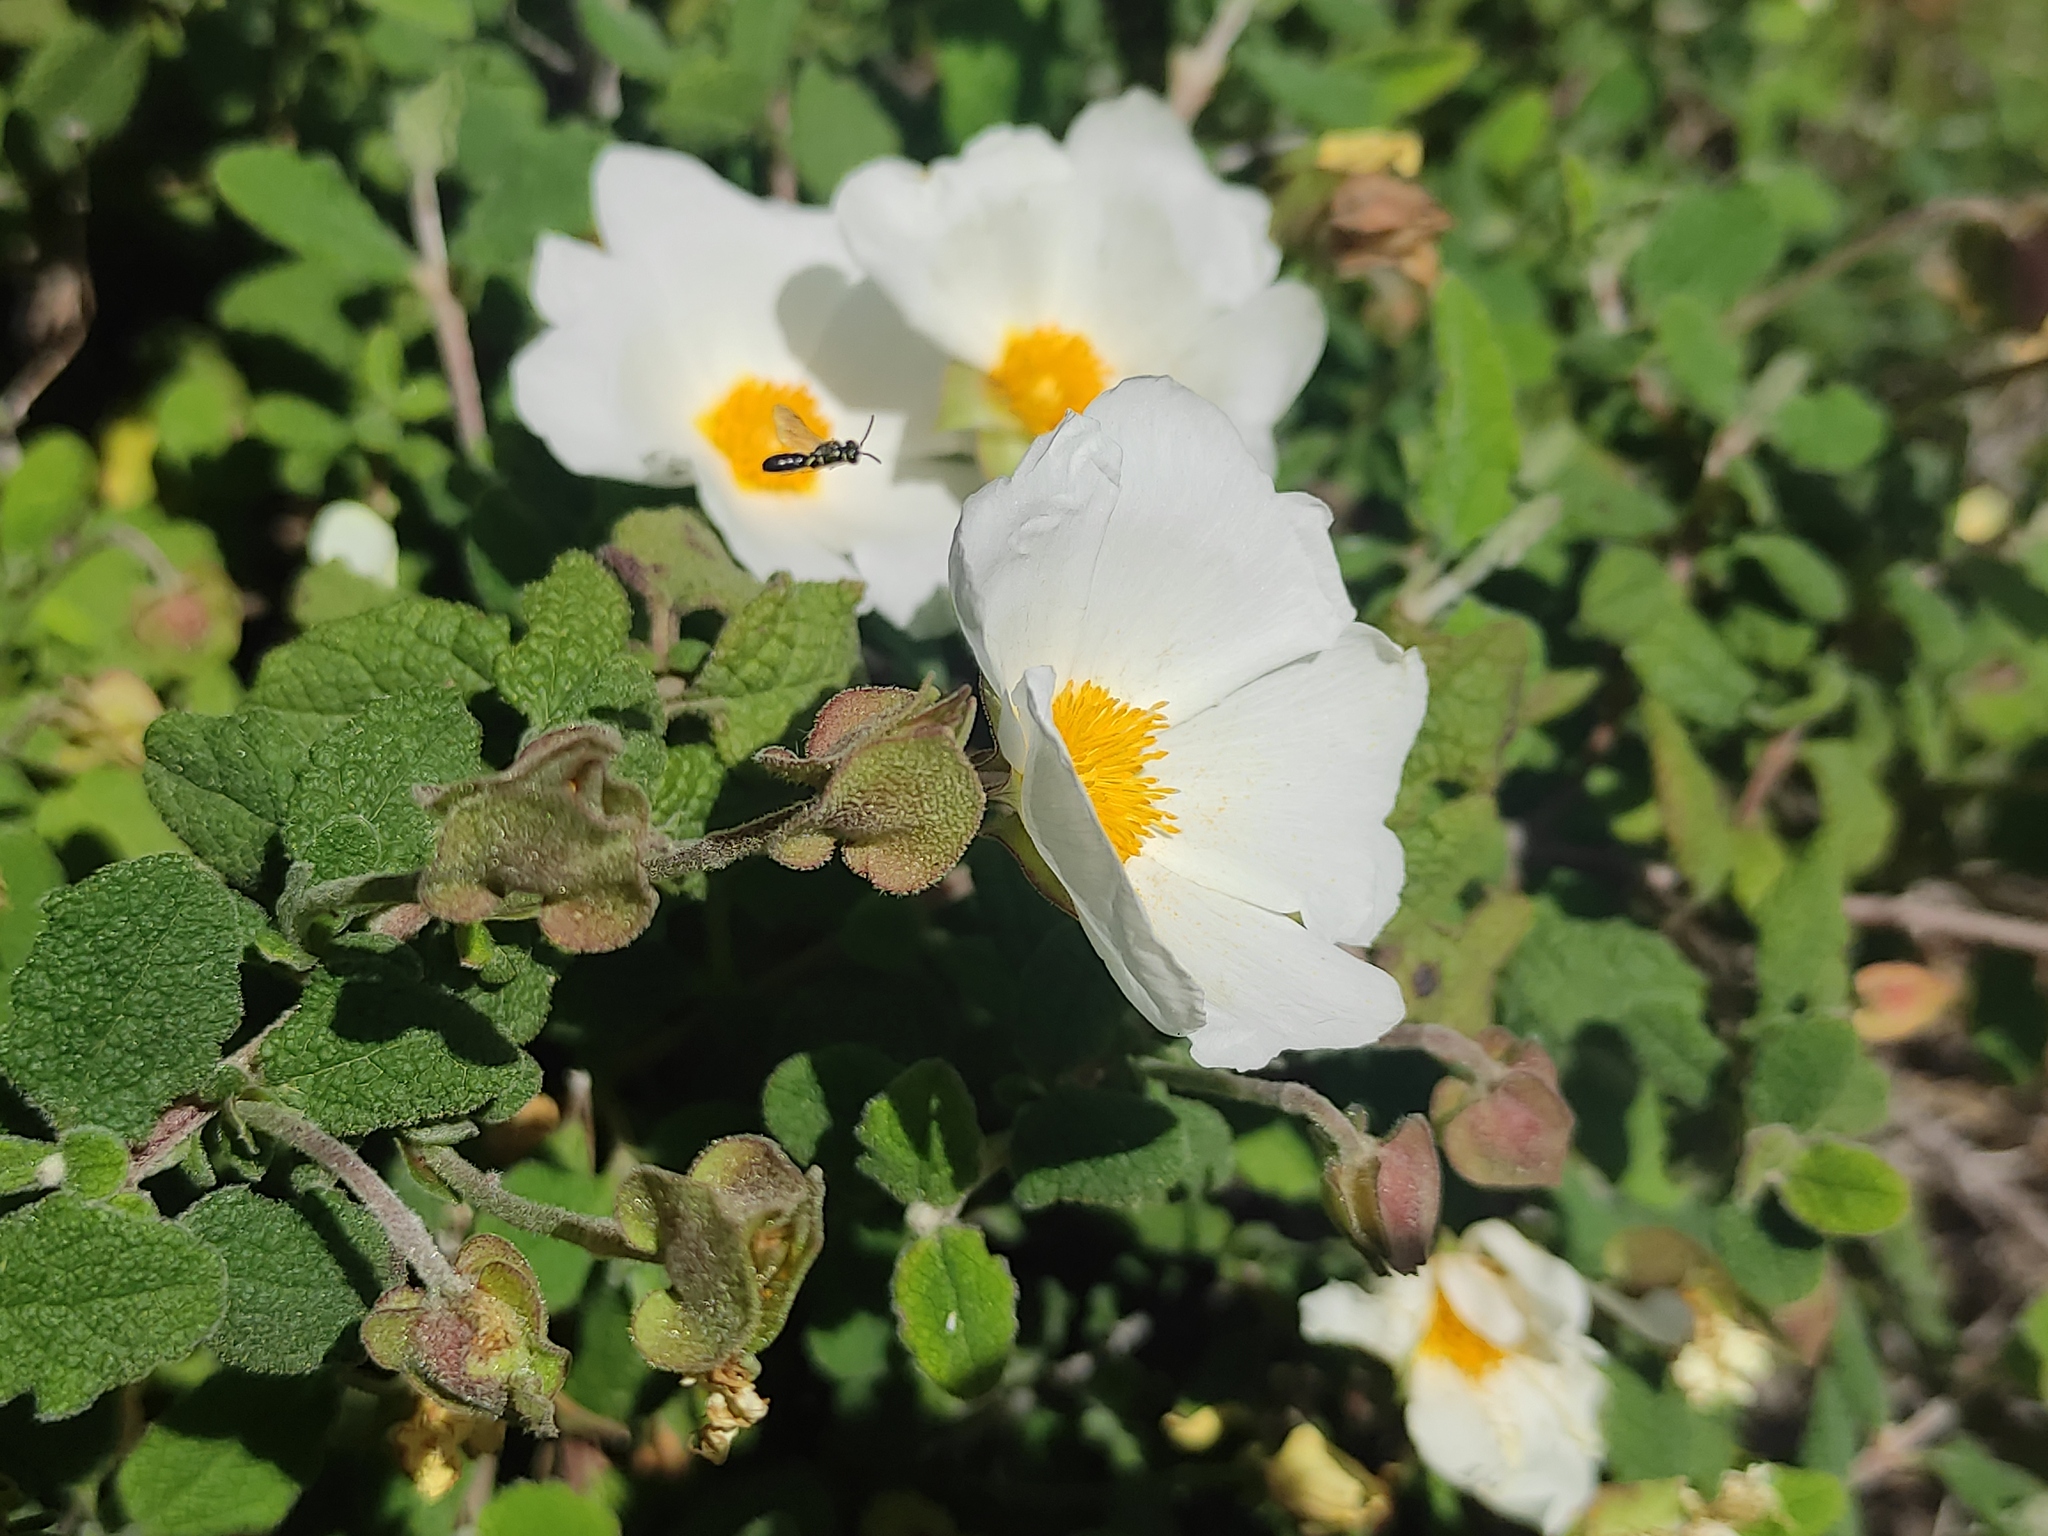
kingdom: Plantae
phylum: Tracheophyta
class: Magnoliopsida
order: Malvales
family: Cistaceae
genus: Cistus
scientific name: Cistus salviifolius
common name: Salvia cistus
